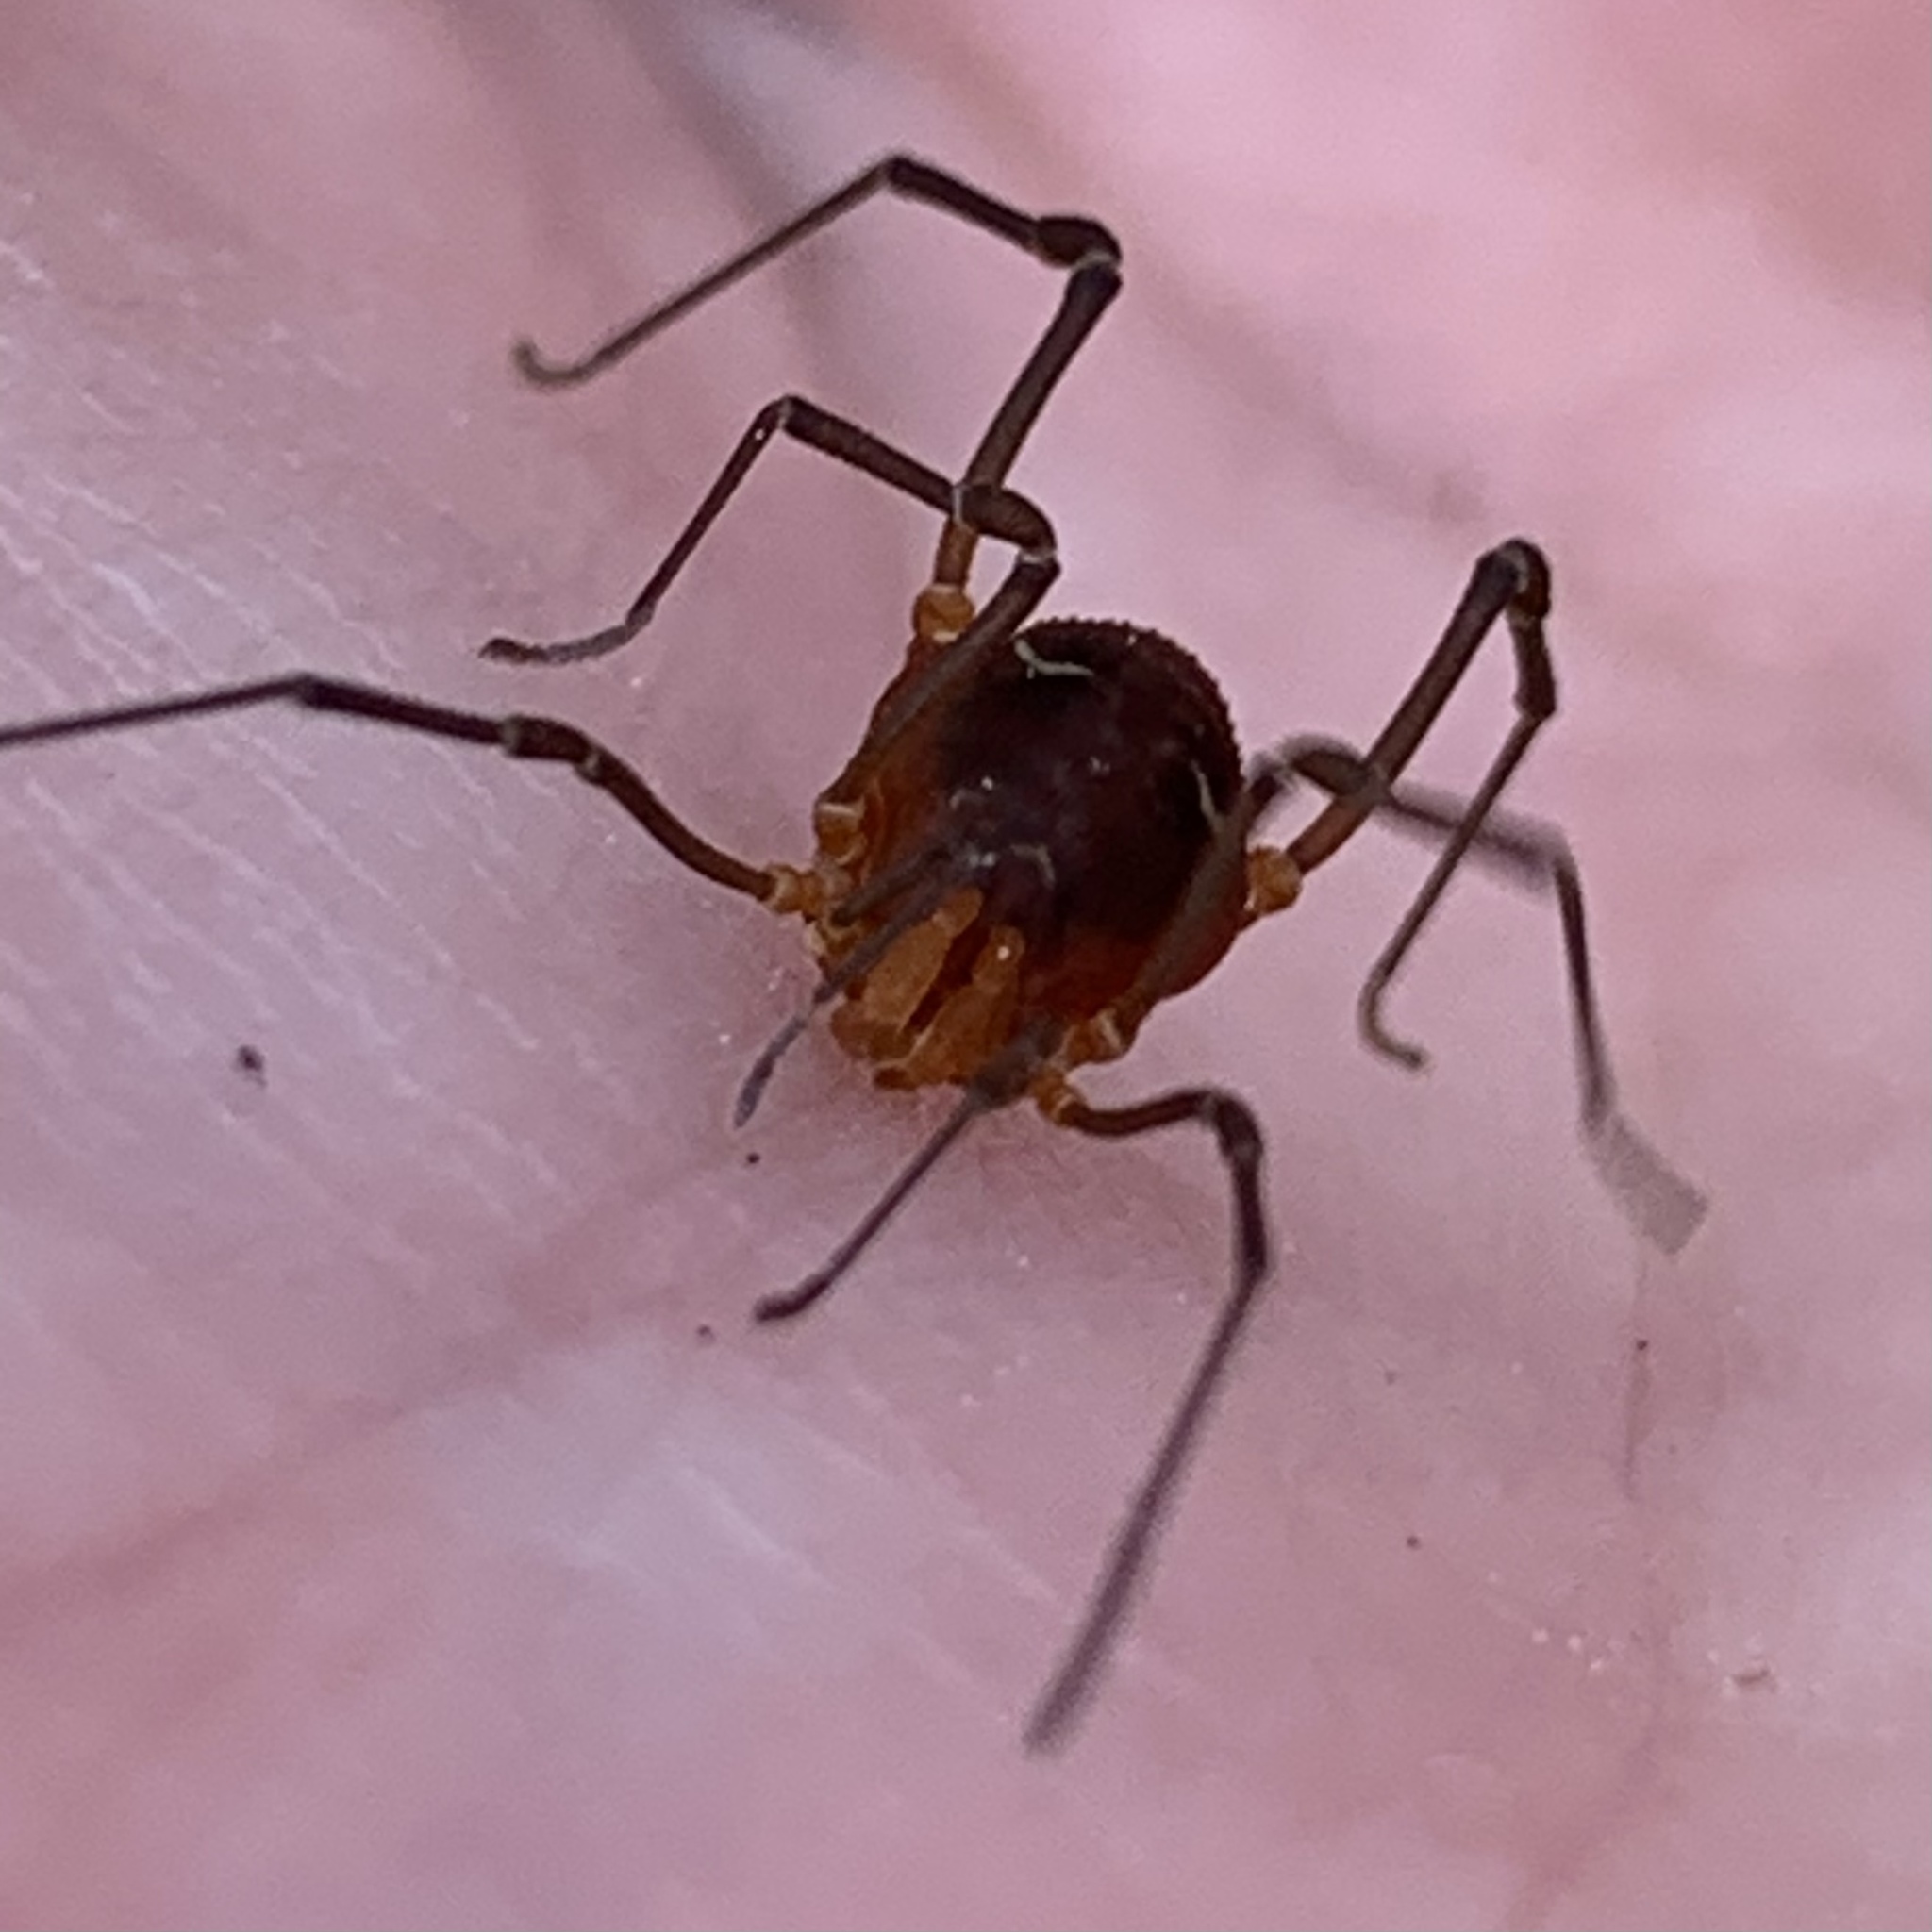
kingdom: Animalia
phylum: Arthropoda
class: Arachnida
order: Opiliones
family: Cosmetidae
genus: Libitioides
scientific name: Libitioides sayi
